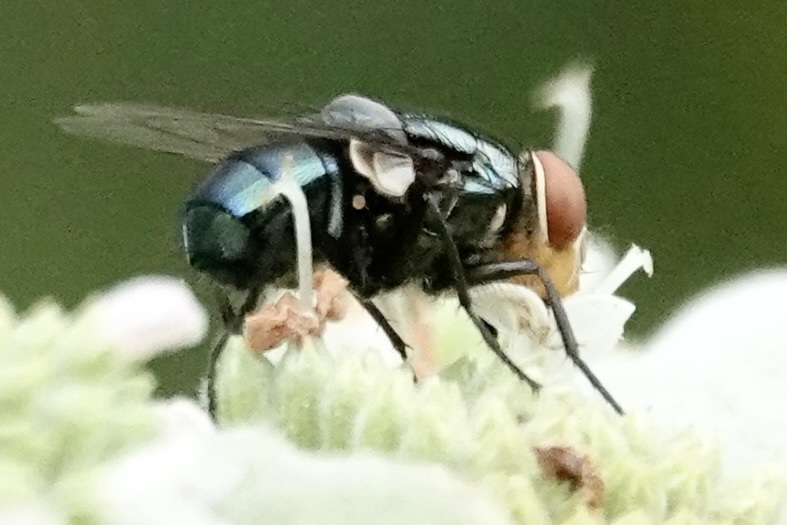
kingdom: Animalia
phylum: Arthropoda
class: Insecta
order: Diptera
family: Calliphoridae
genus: Cochliomyia
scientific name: Cochliomyia macellaria
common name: Secondary screwworm
